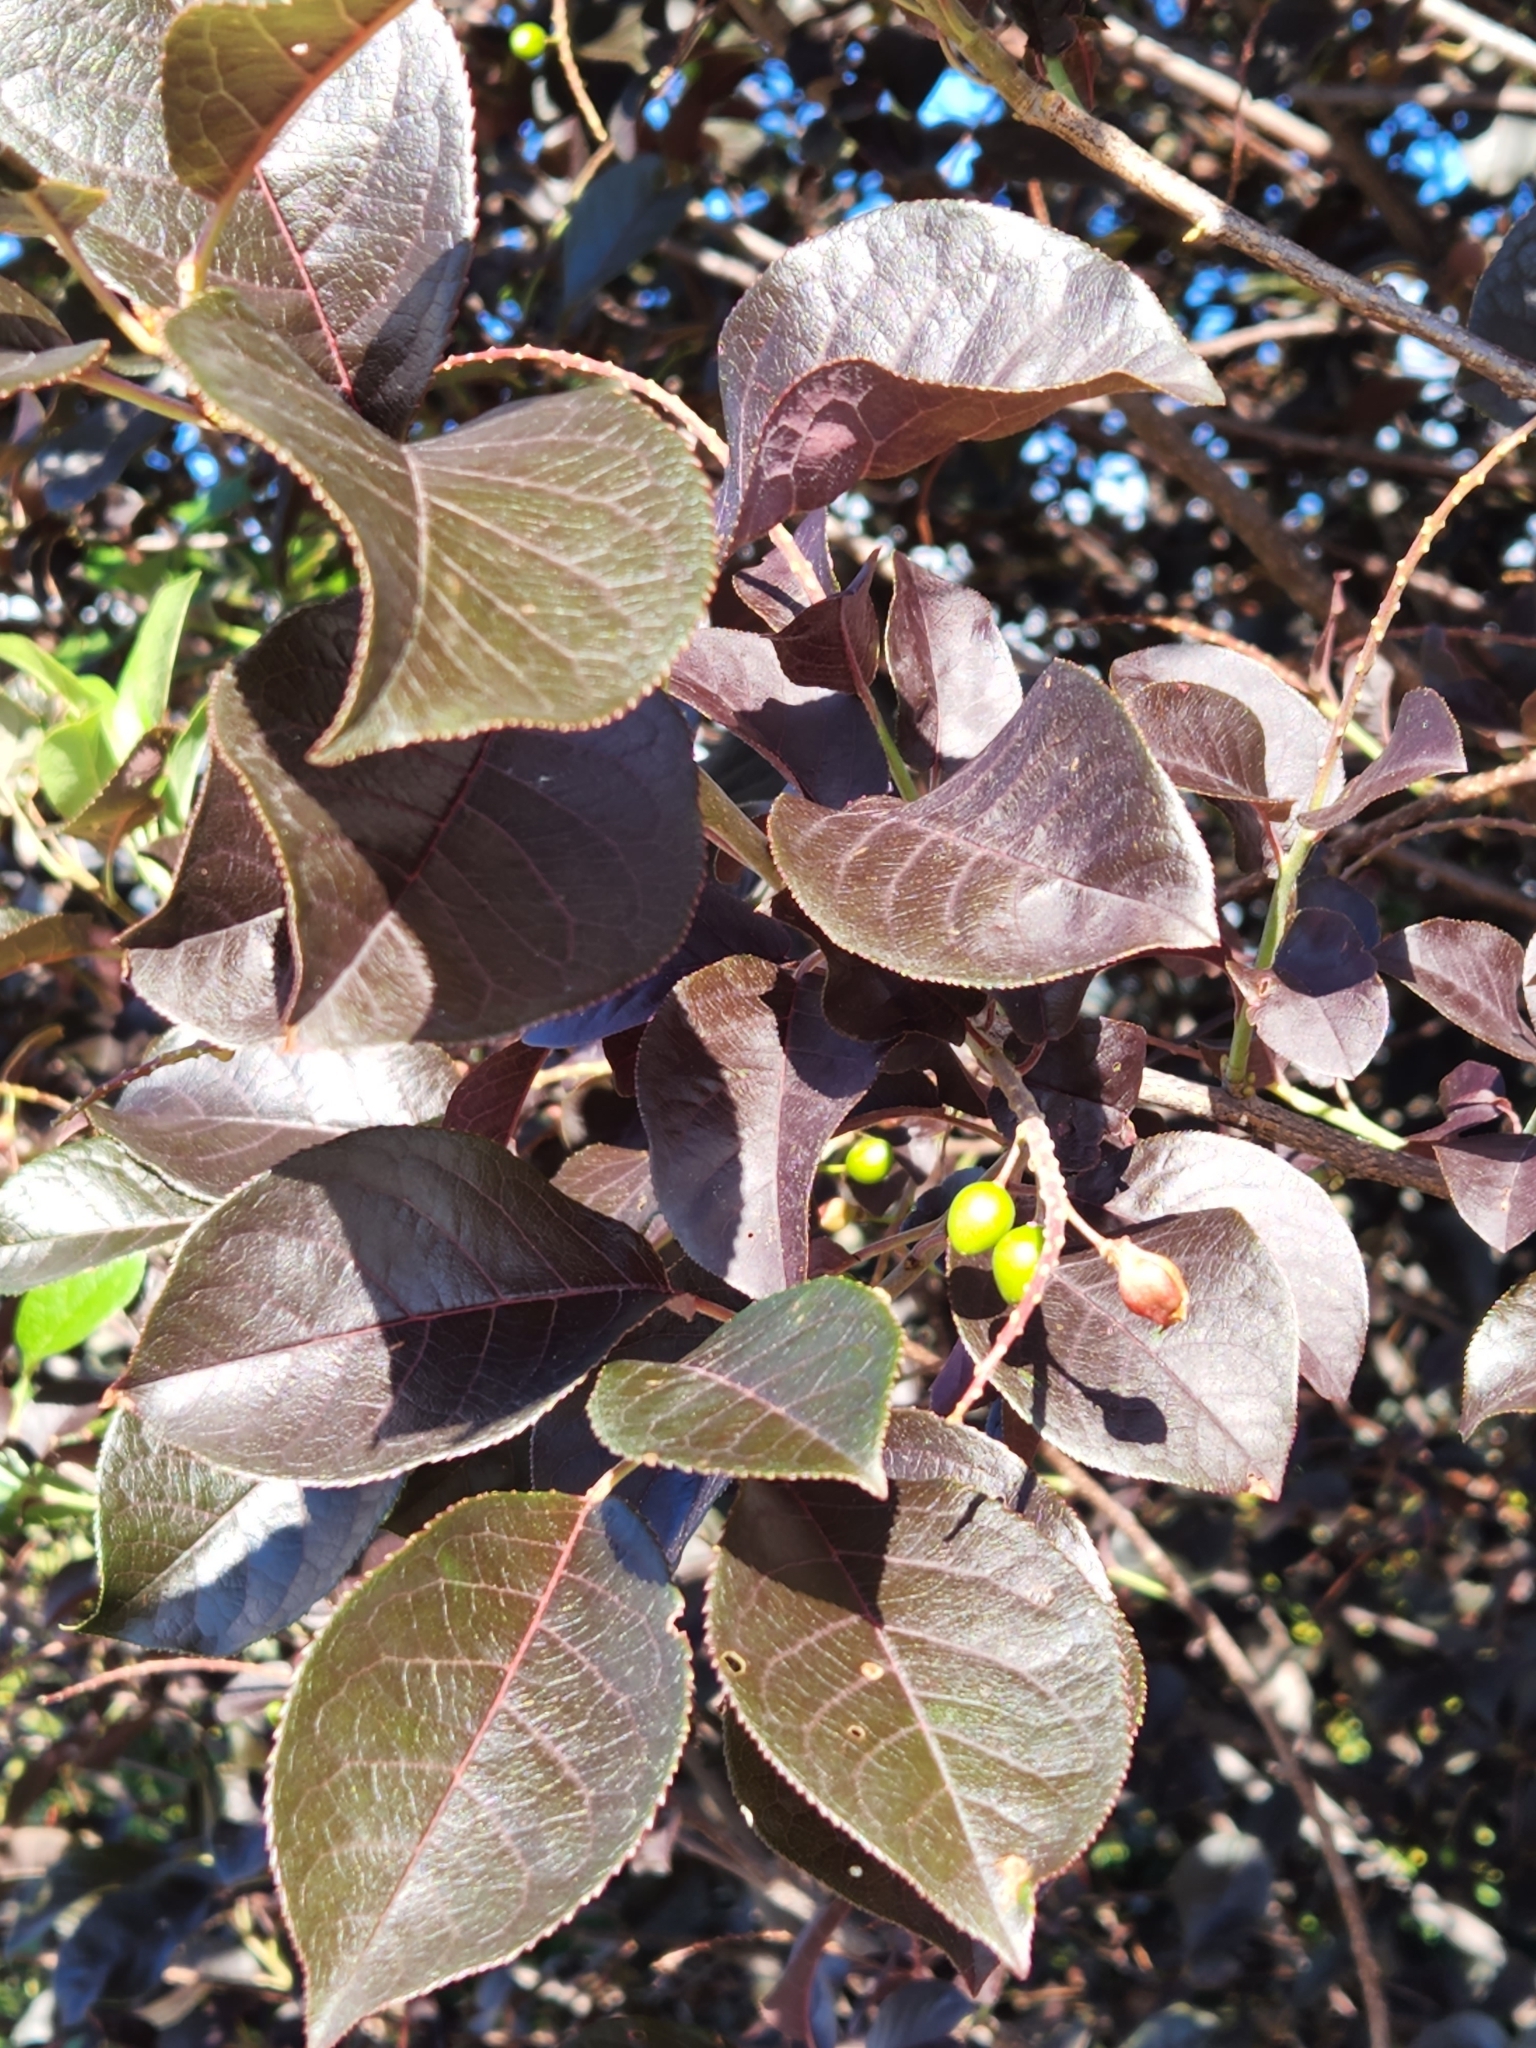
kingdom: Plantae
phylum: Tracheophyta
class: Magnoliopsida
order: Rosales
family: Rosaceae
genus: Prunus
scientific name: Prunus virginiana
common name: Chokecherry
